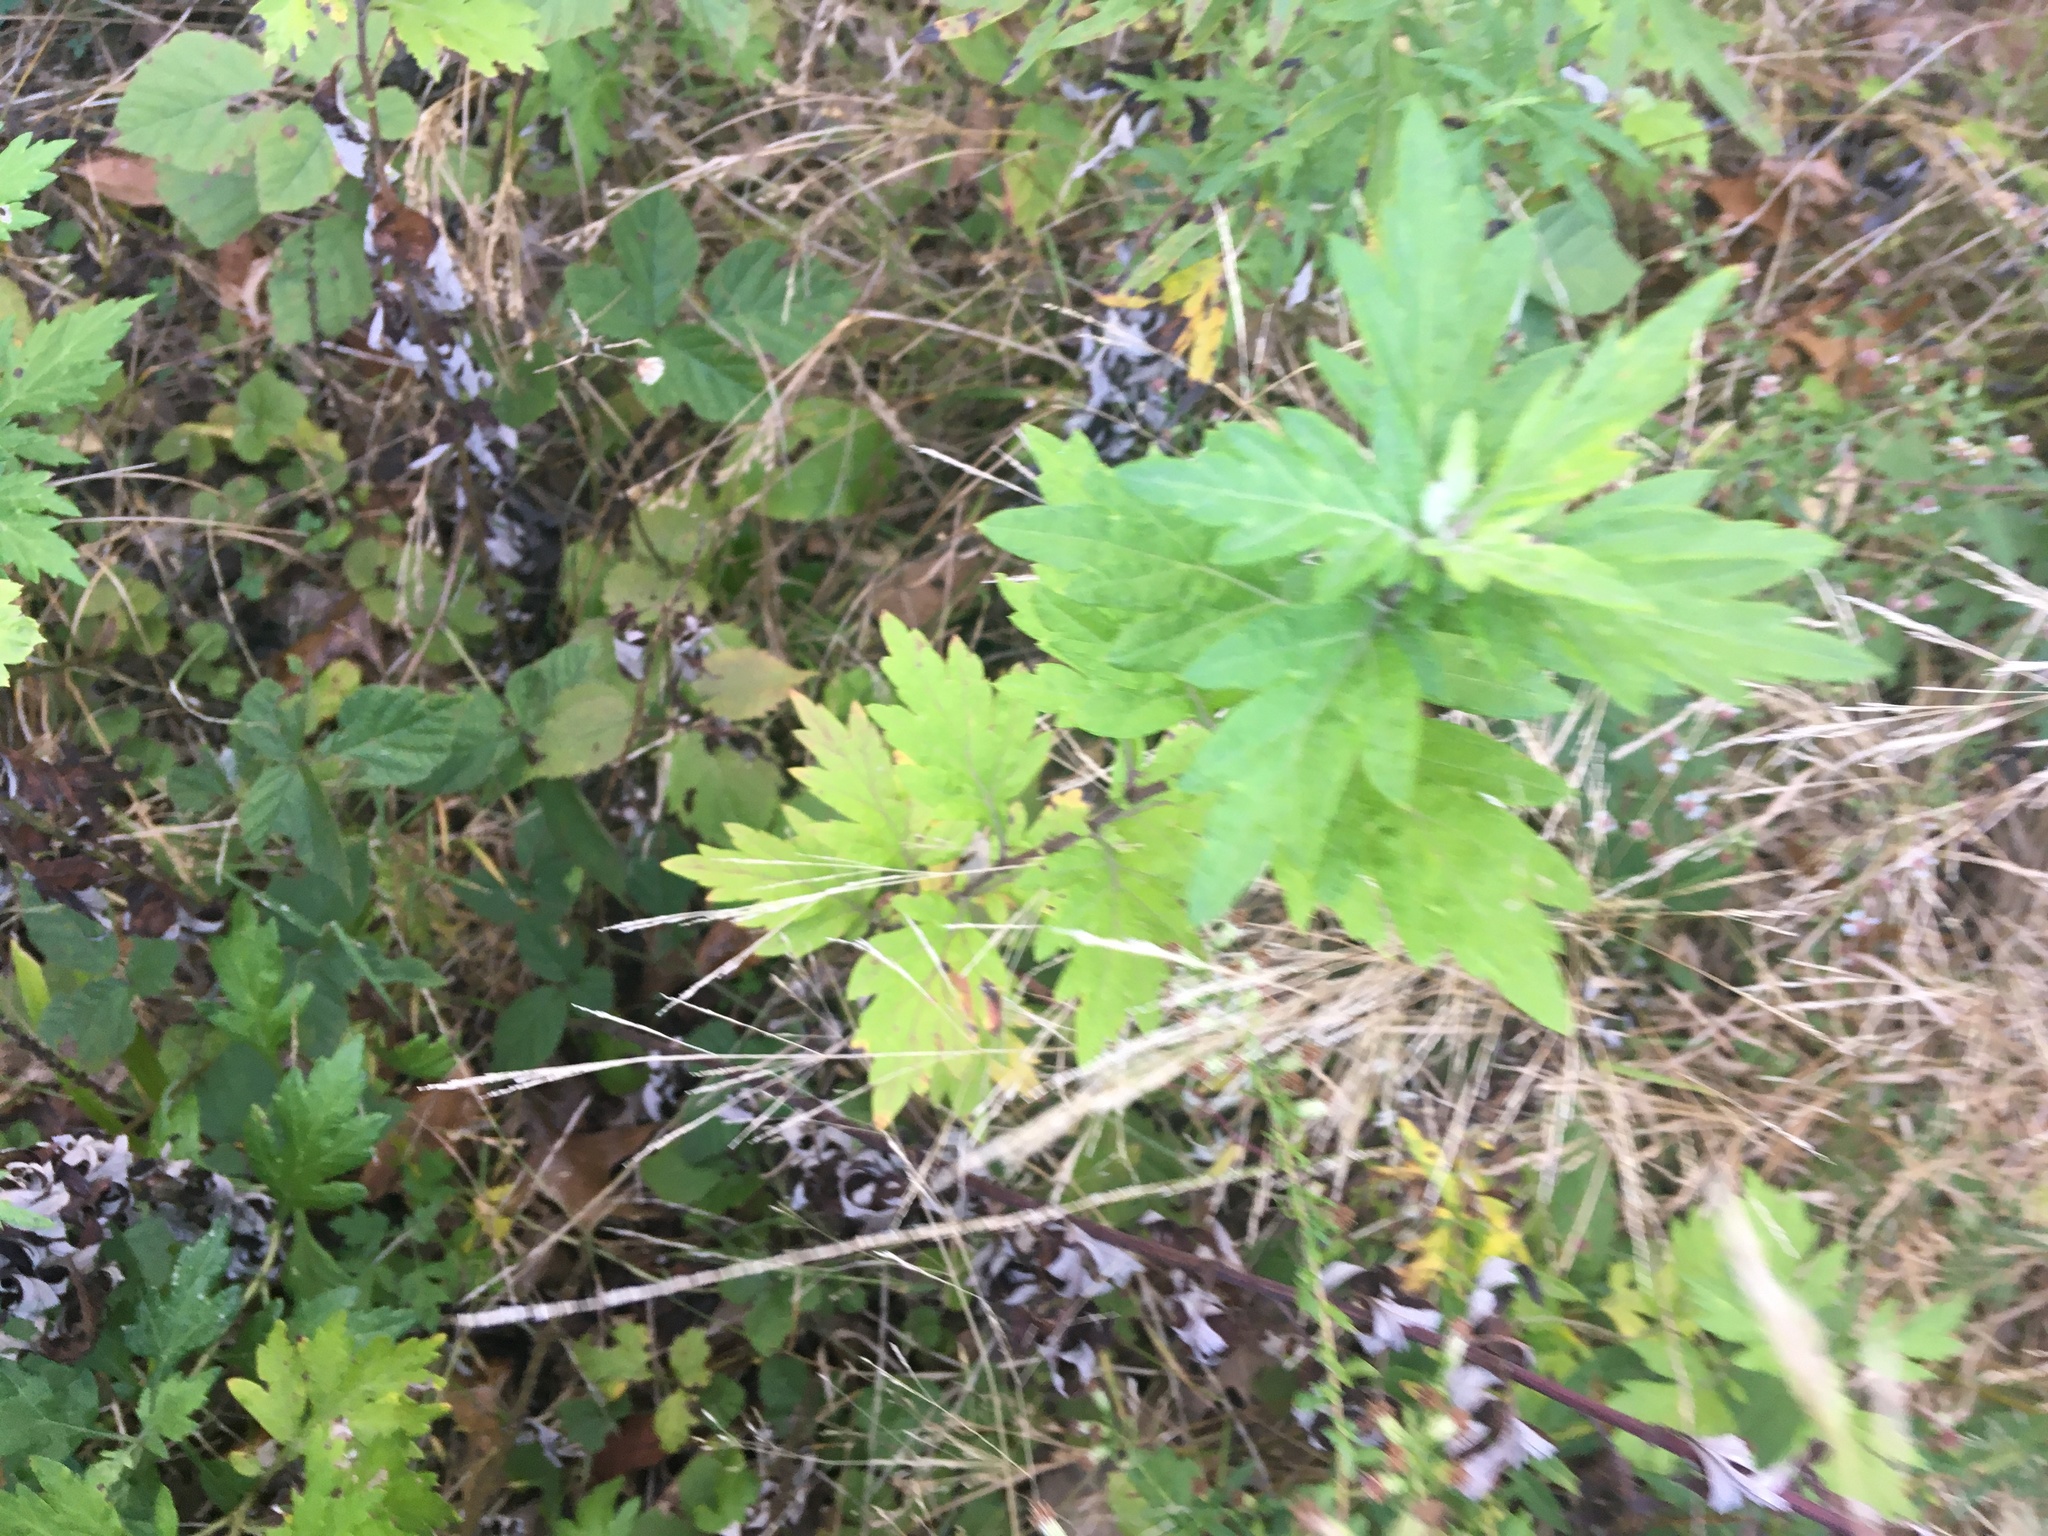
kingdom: Plantae
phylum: Tracheophyta
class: Magnoliopsida
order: Asterales
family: Asteraceae
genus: Artemisia
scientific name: Artemisia vulgaris
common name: Mugwort
